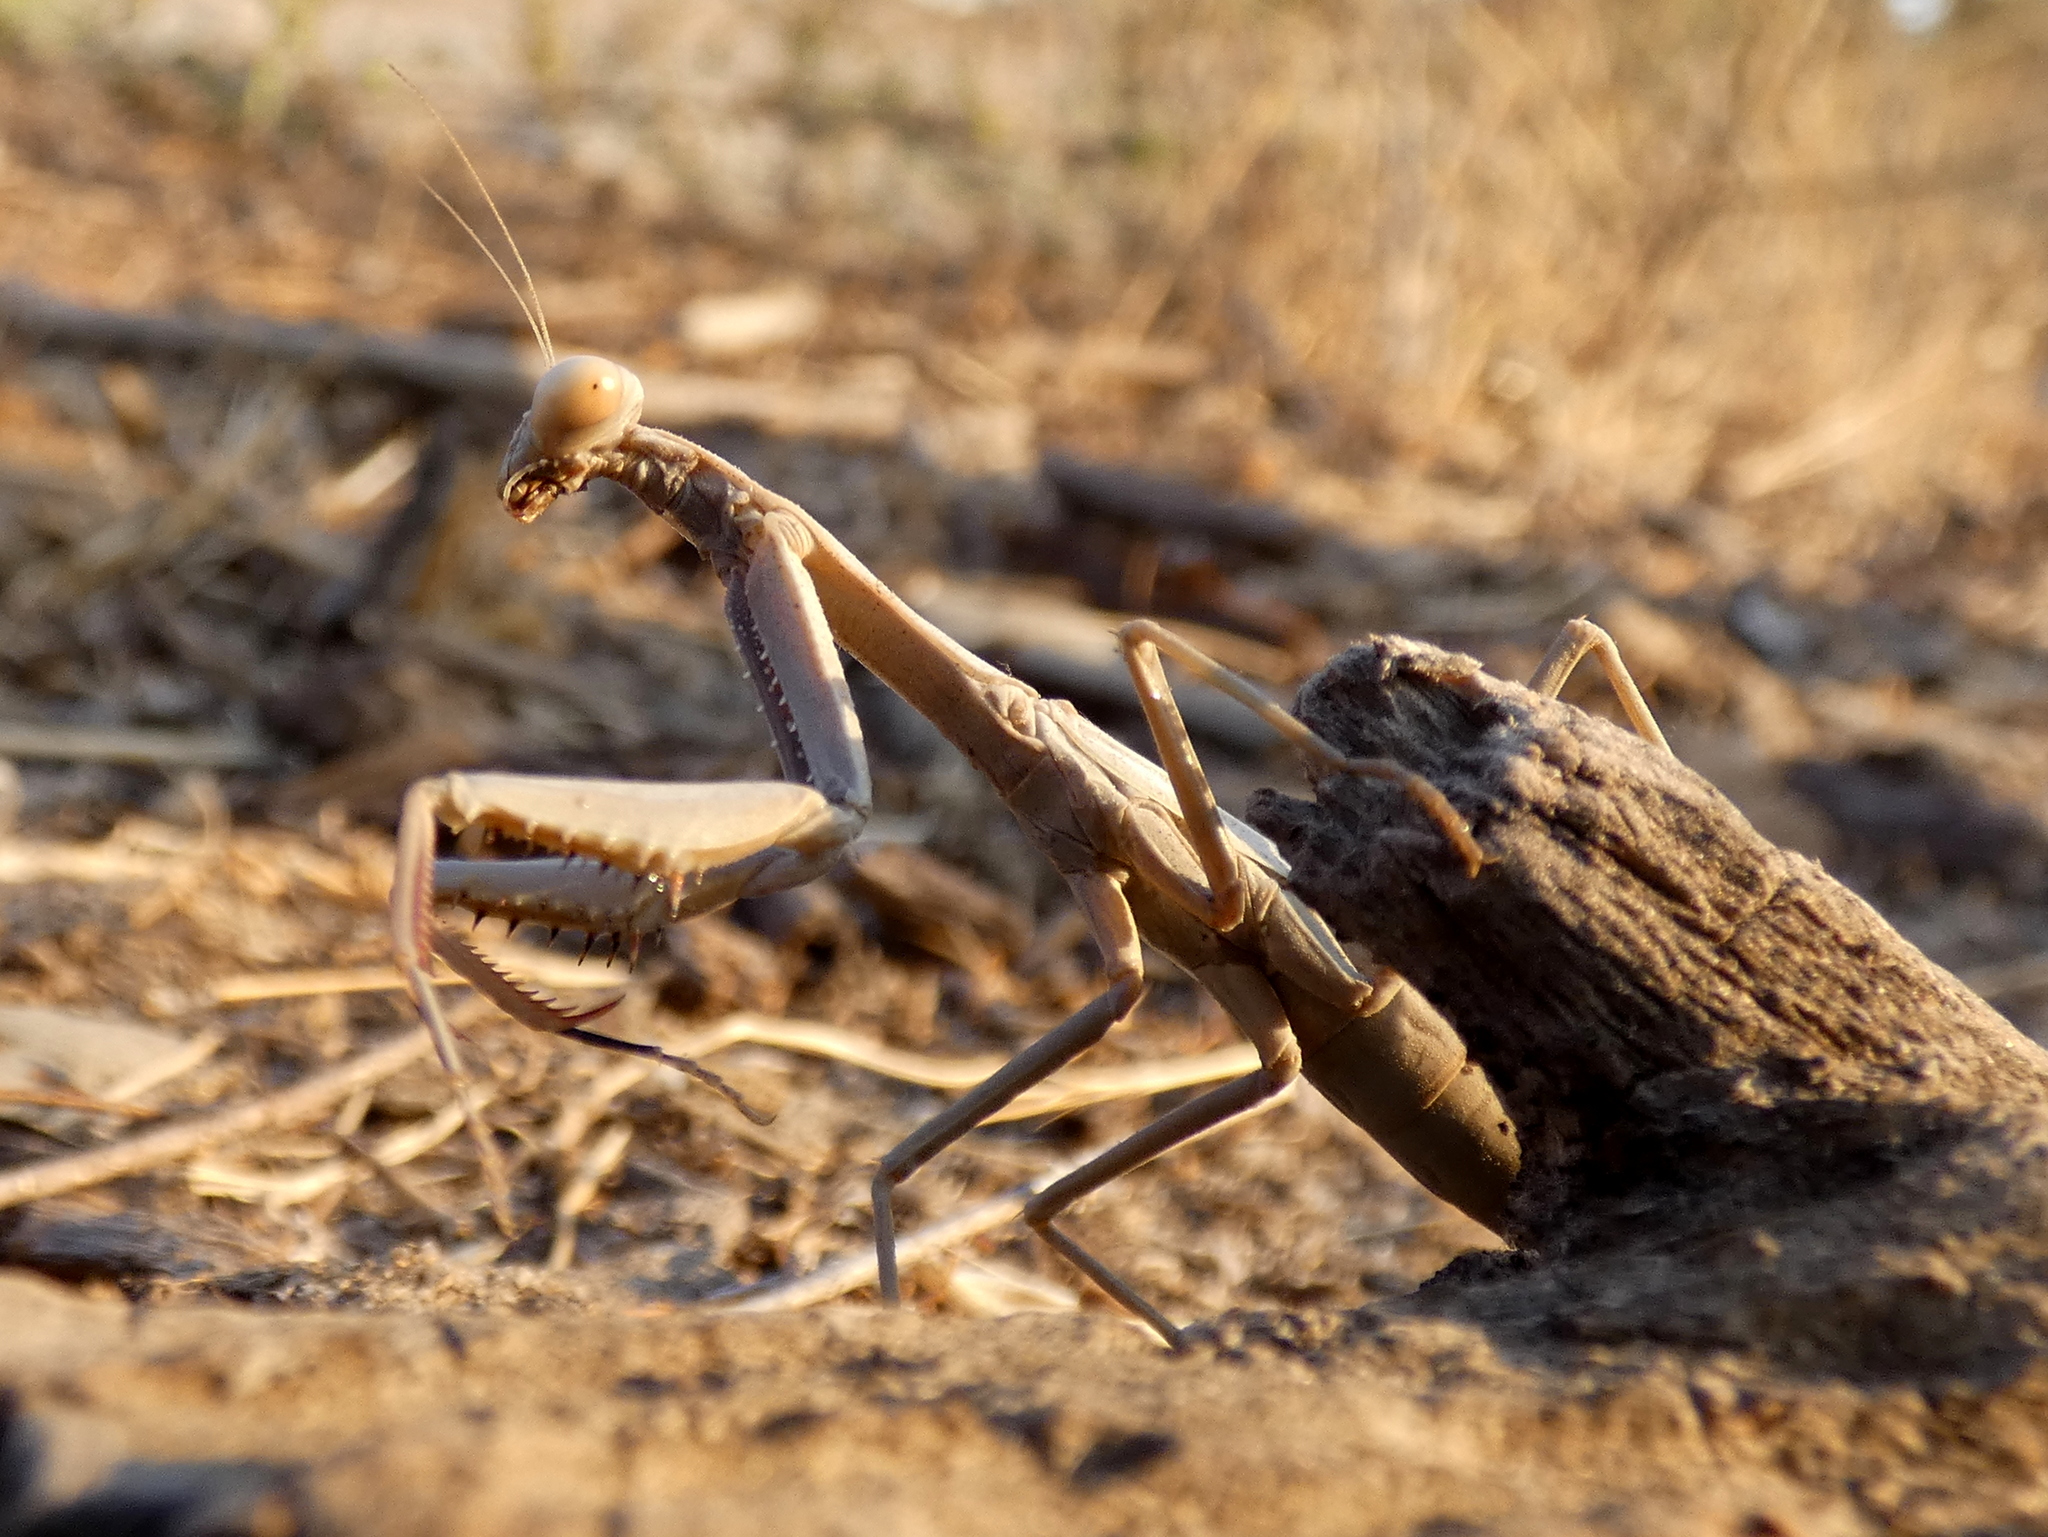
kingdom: Animalia
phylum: Arthropoda
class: Insecta
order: Mantodea
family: Eremiaphilidae
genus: Iris
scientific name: Iris oratoria
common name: Mediterranean mantis
